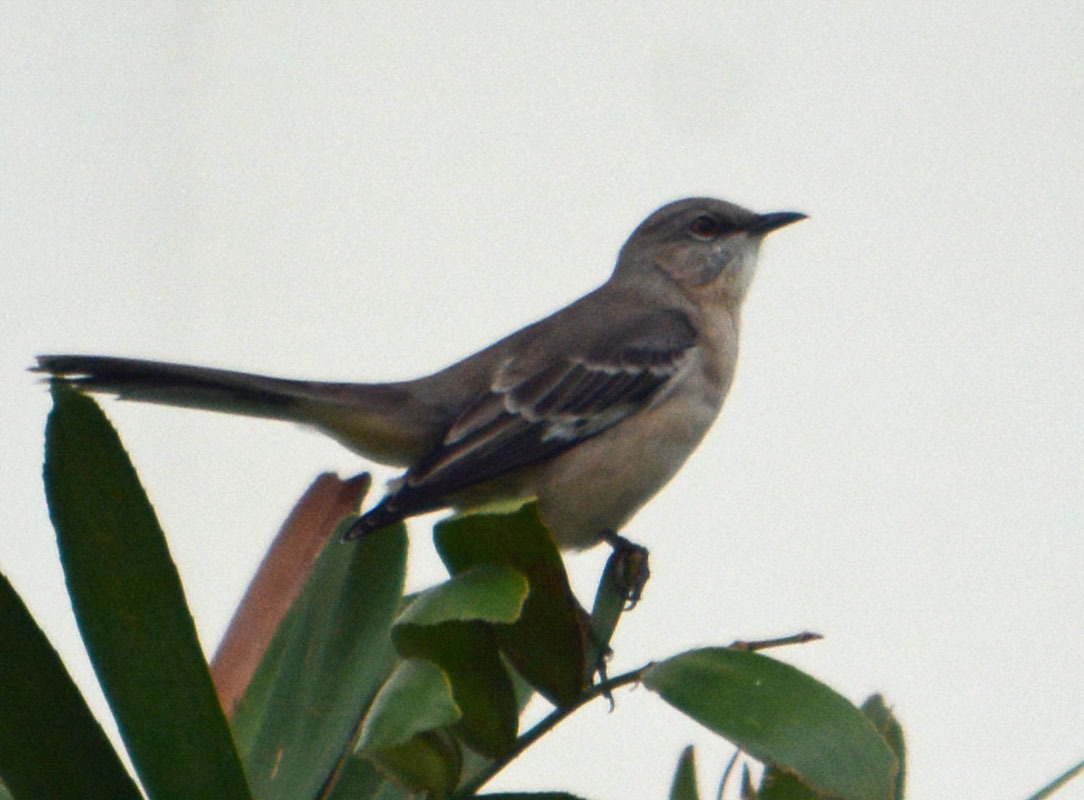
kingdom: Animalia
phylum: Chordata
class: Aves
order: Passeriformes
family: Mimidae
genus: Mimus
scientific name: Mimus polyglottos
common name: Northern mockingbird
